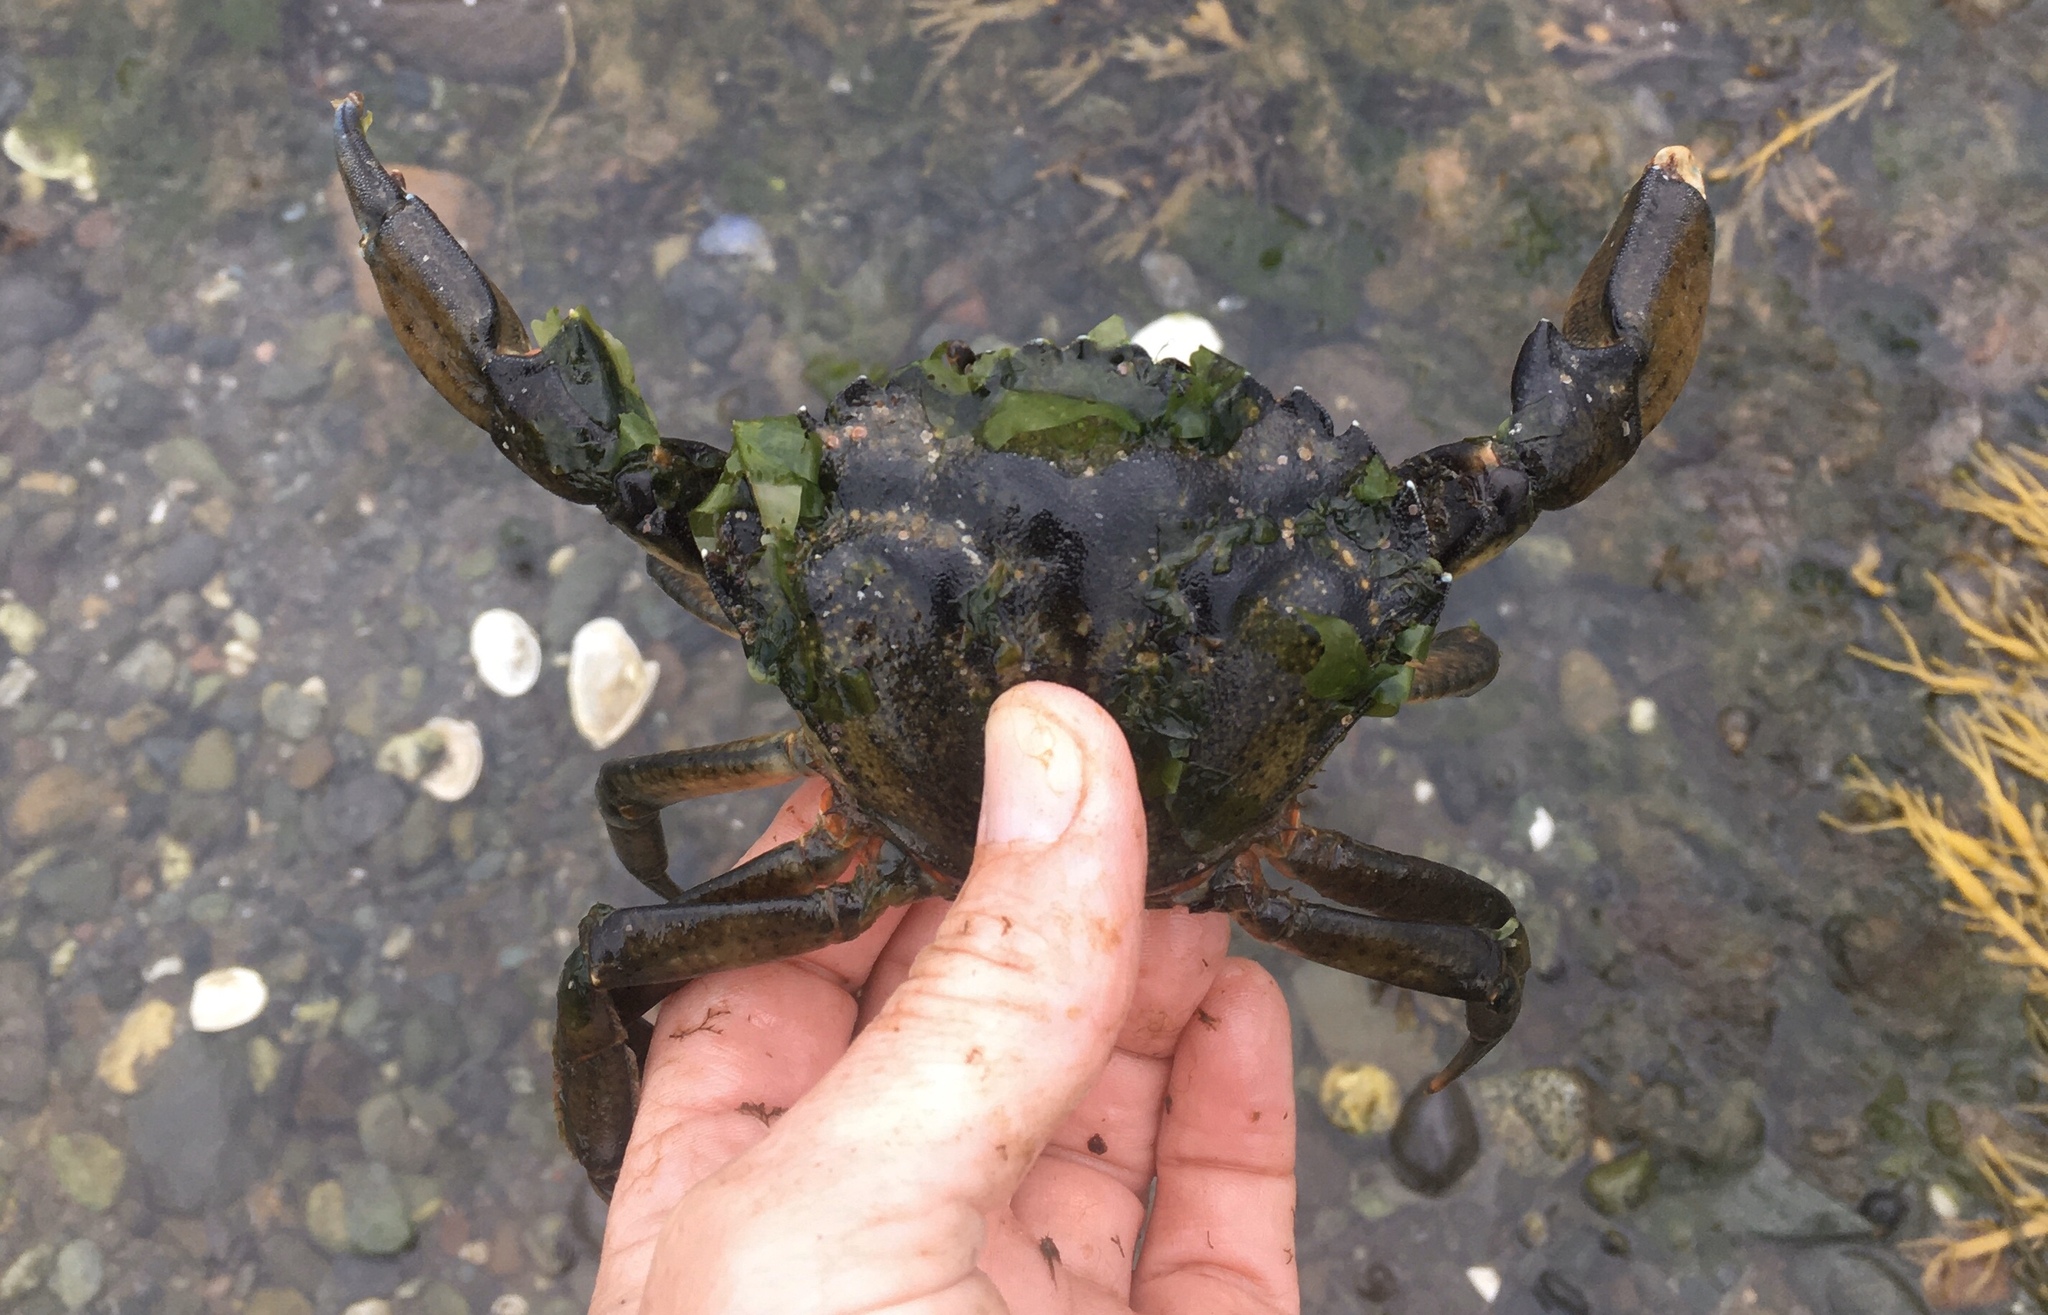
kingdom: Animalia
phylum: Arthropoda
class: Malacostraca
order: Decapoda
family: Carcinidae
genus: Carcinus
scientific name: Carcinus maenas
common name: European green crab
